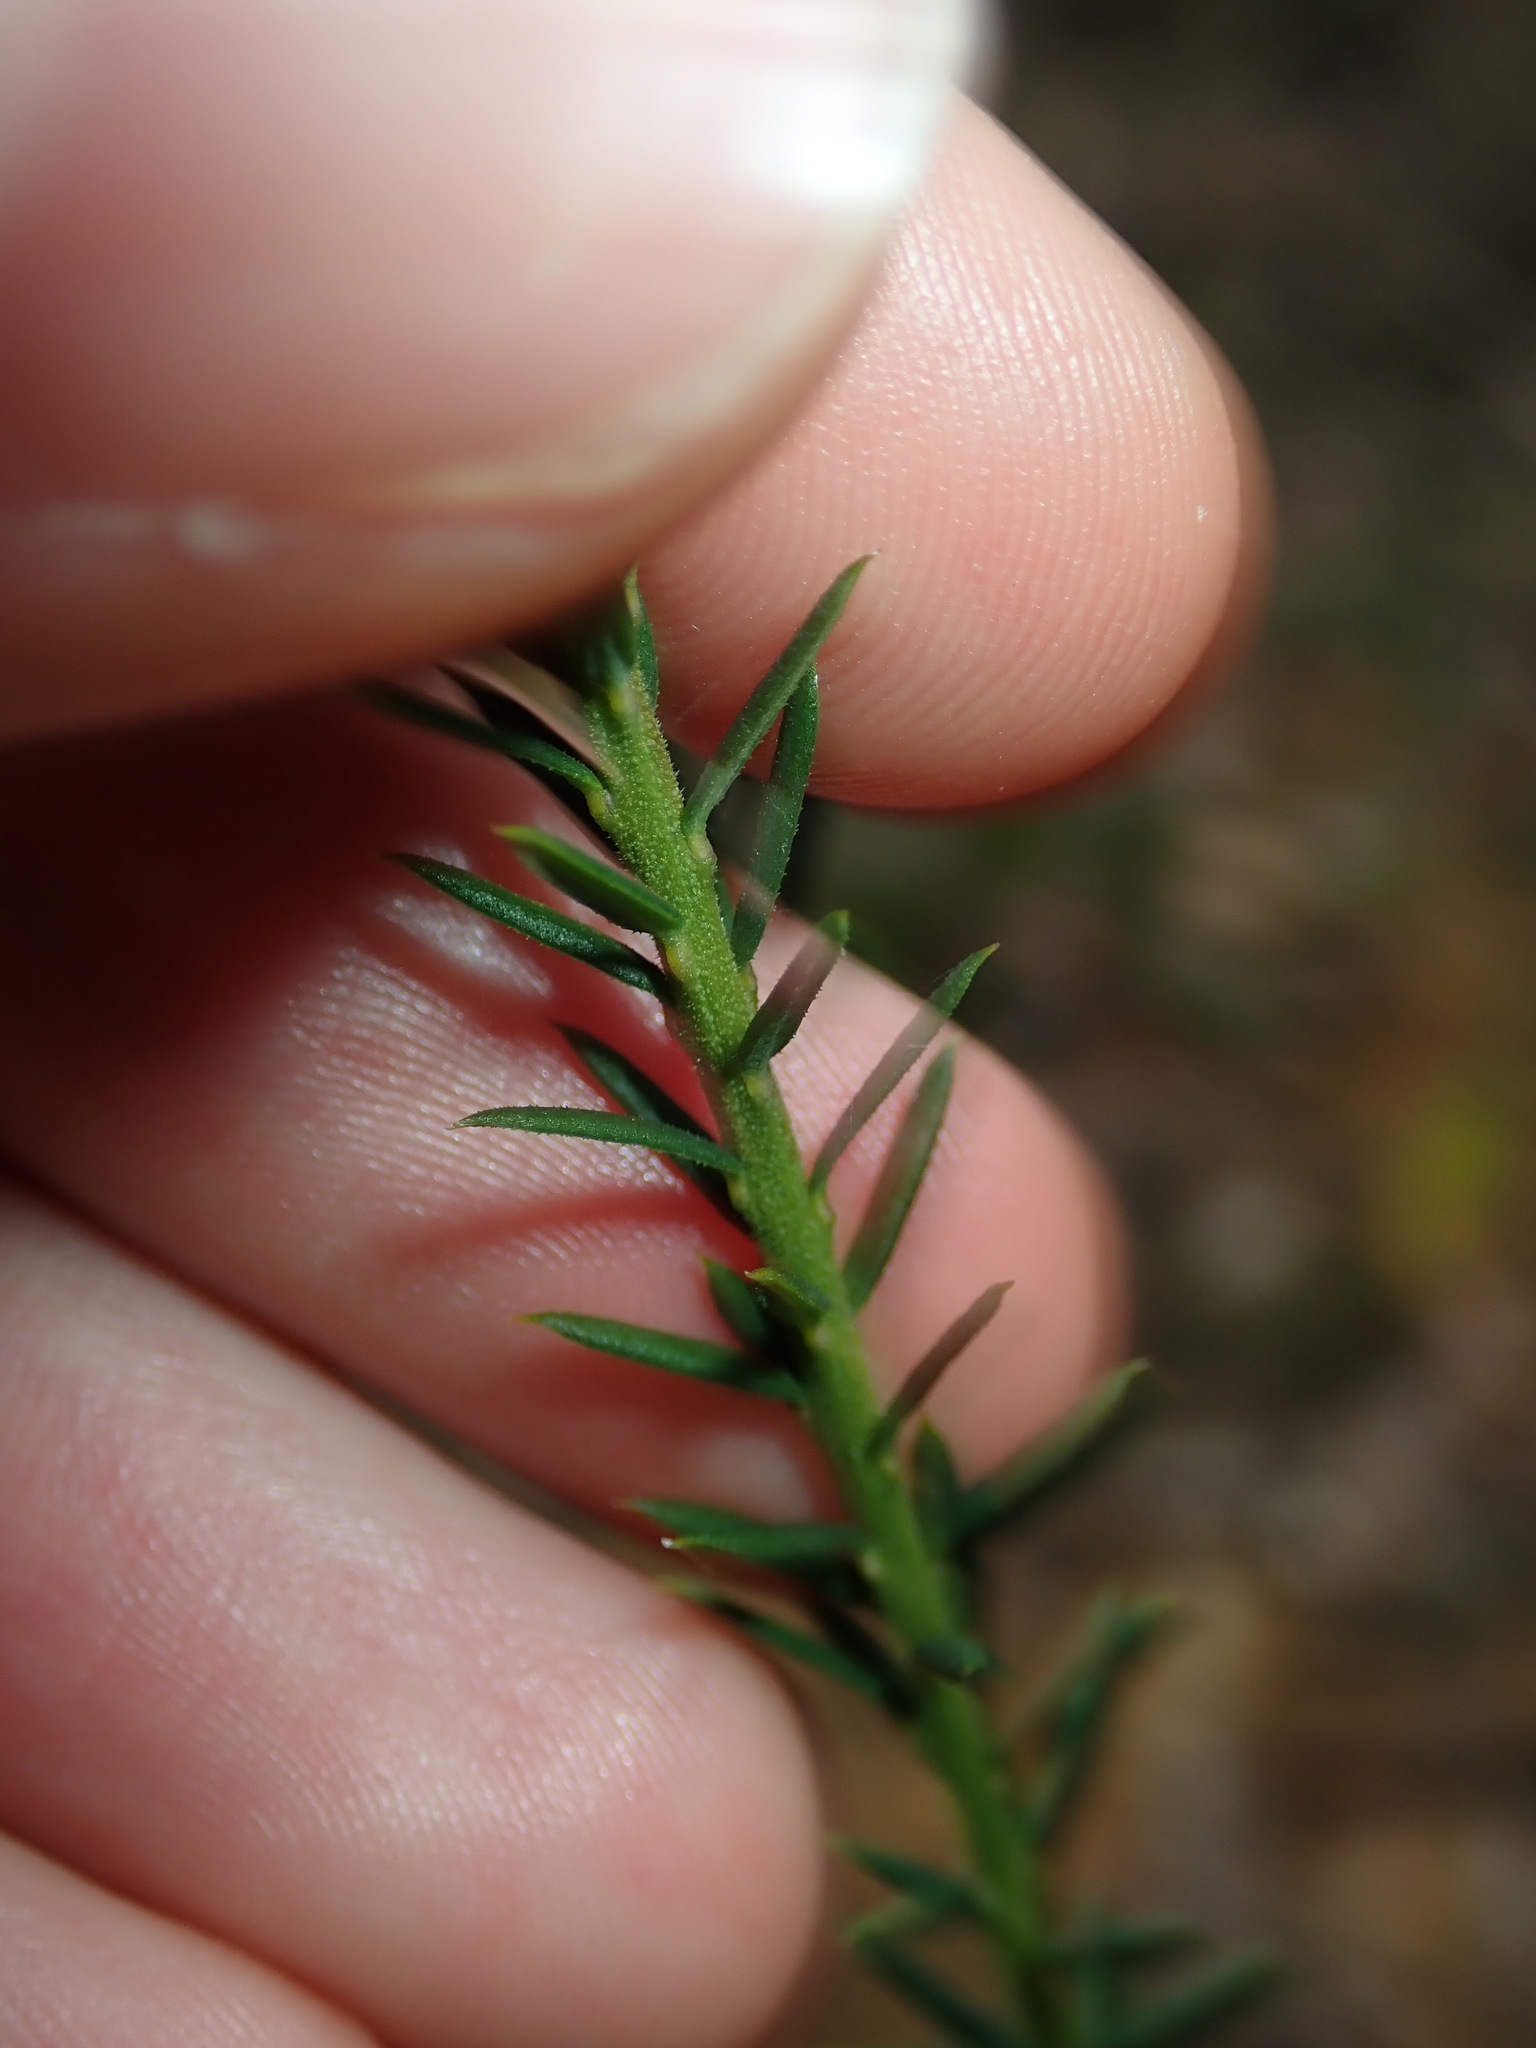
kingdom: Plantae
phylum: Tracheophyta
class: Magnoliopsida
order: Fabales
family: Polygalaceae
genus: Comesperma
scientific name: Comesperma ericinum
